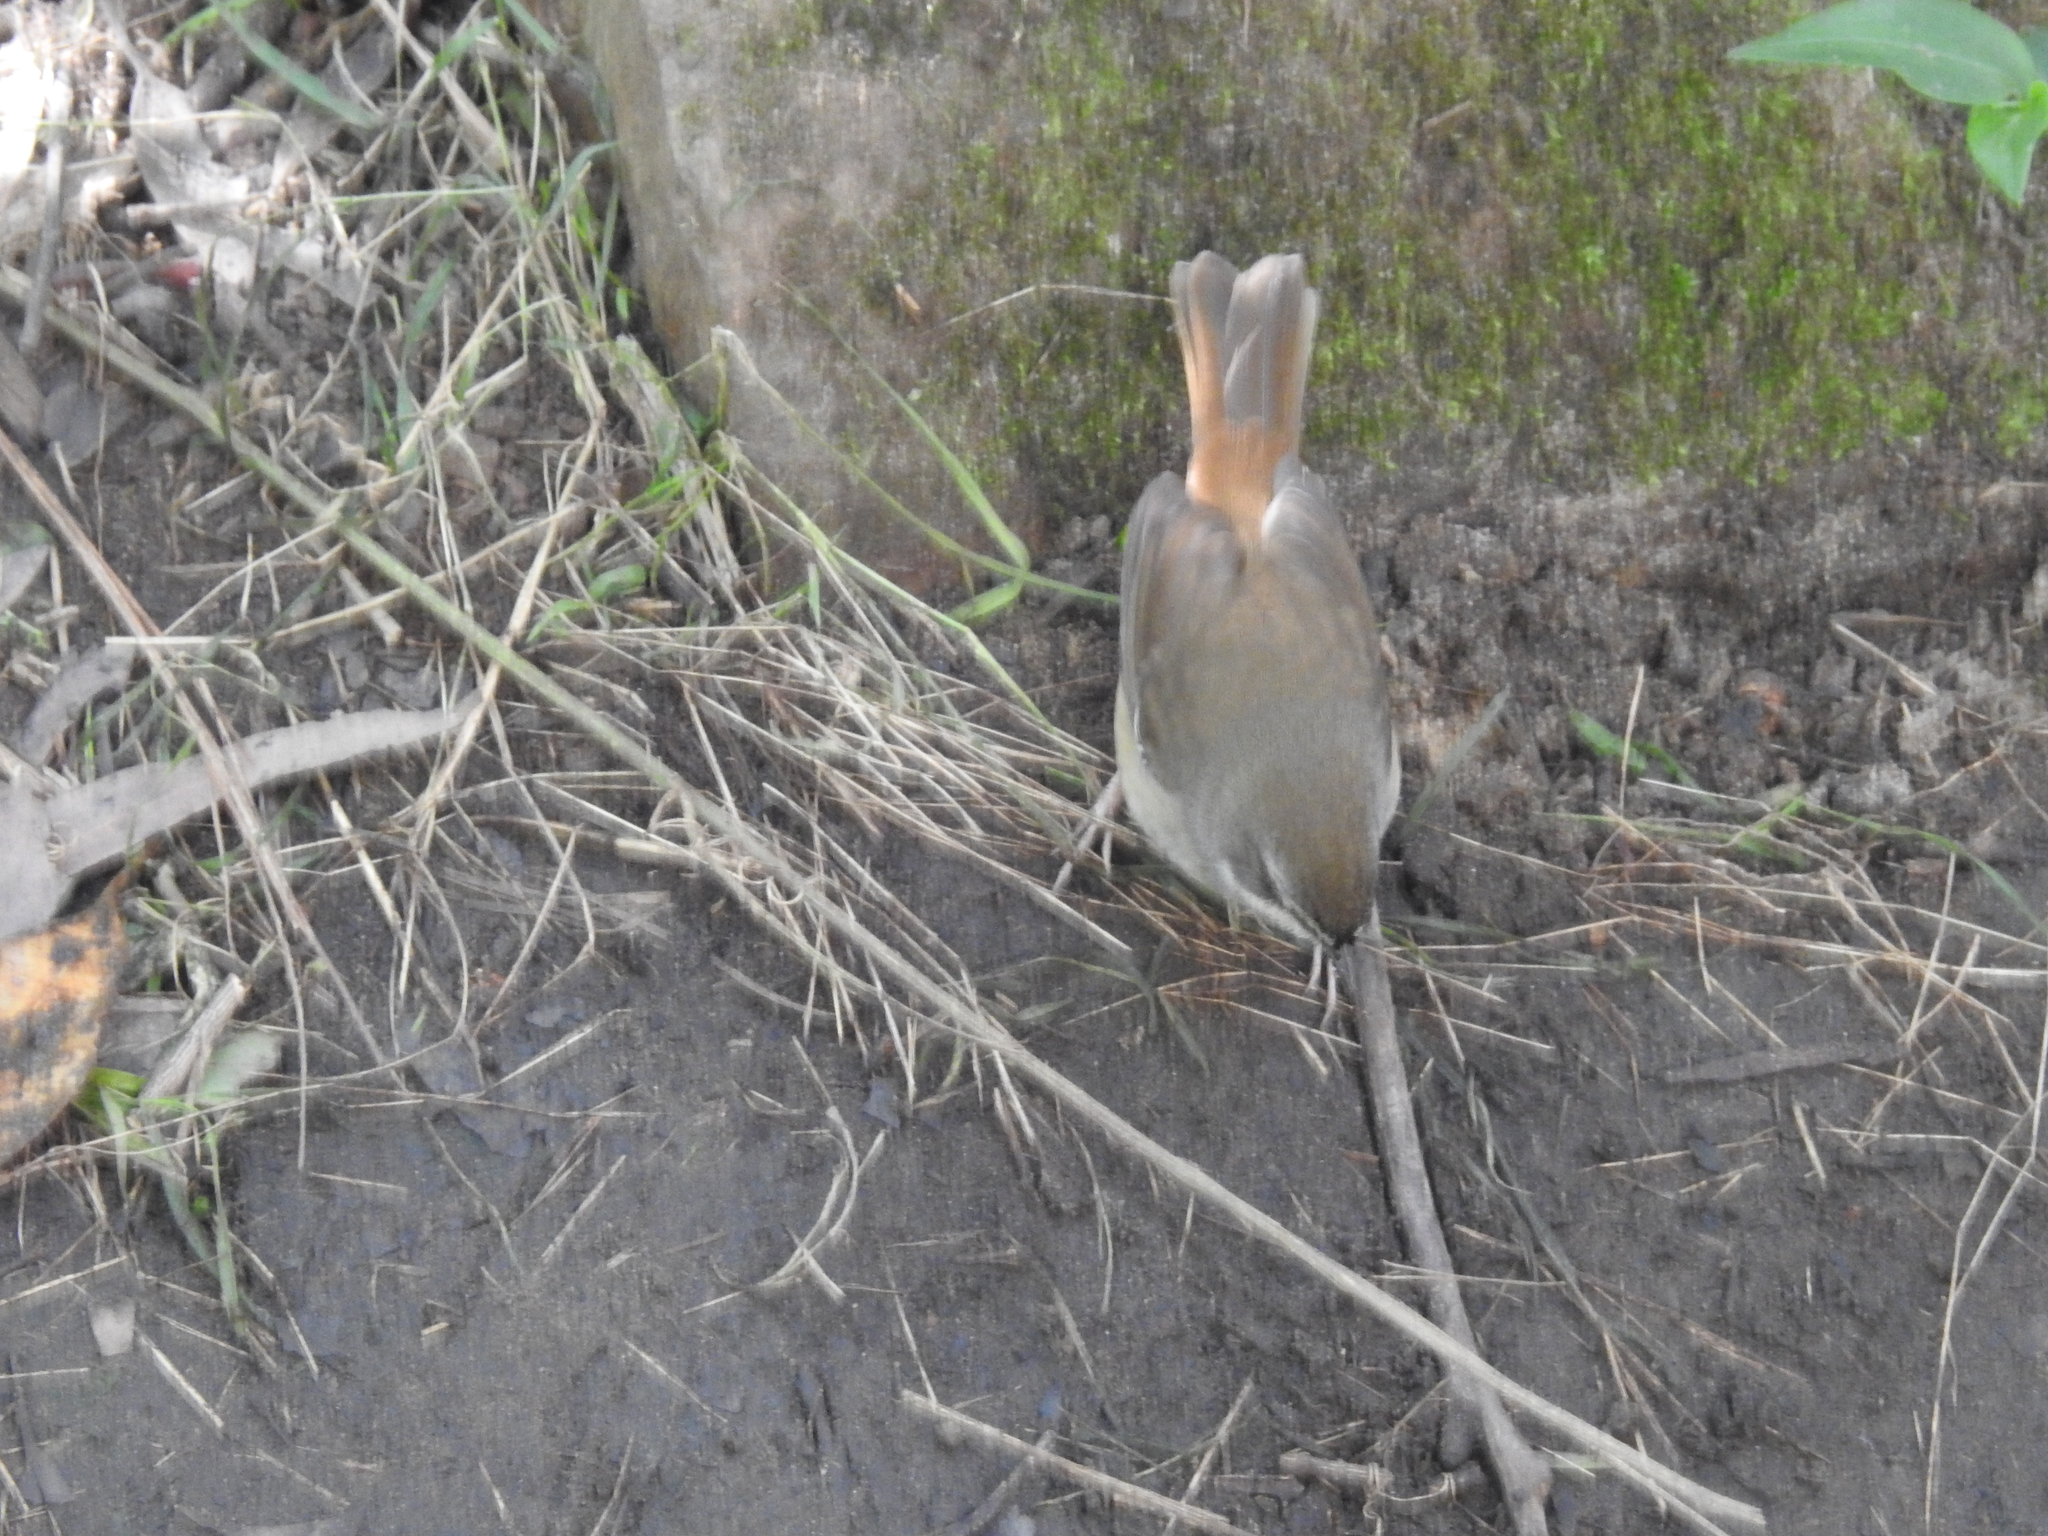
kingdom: Animalia
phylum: Chordata
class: Aves
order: Passeriformes
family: Acanthizidae
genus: Sericornis
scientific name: Sericornis frontalis
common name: White-browed scrubwren
